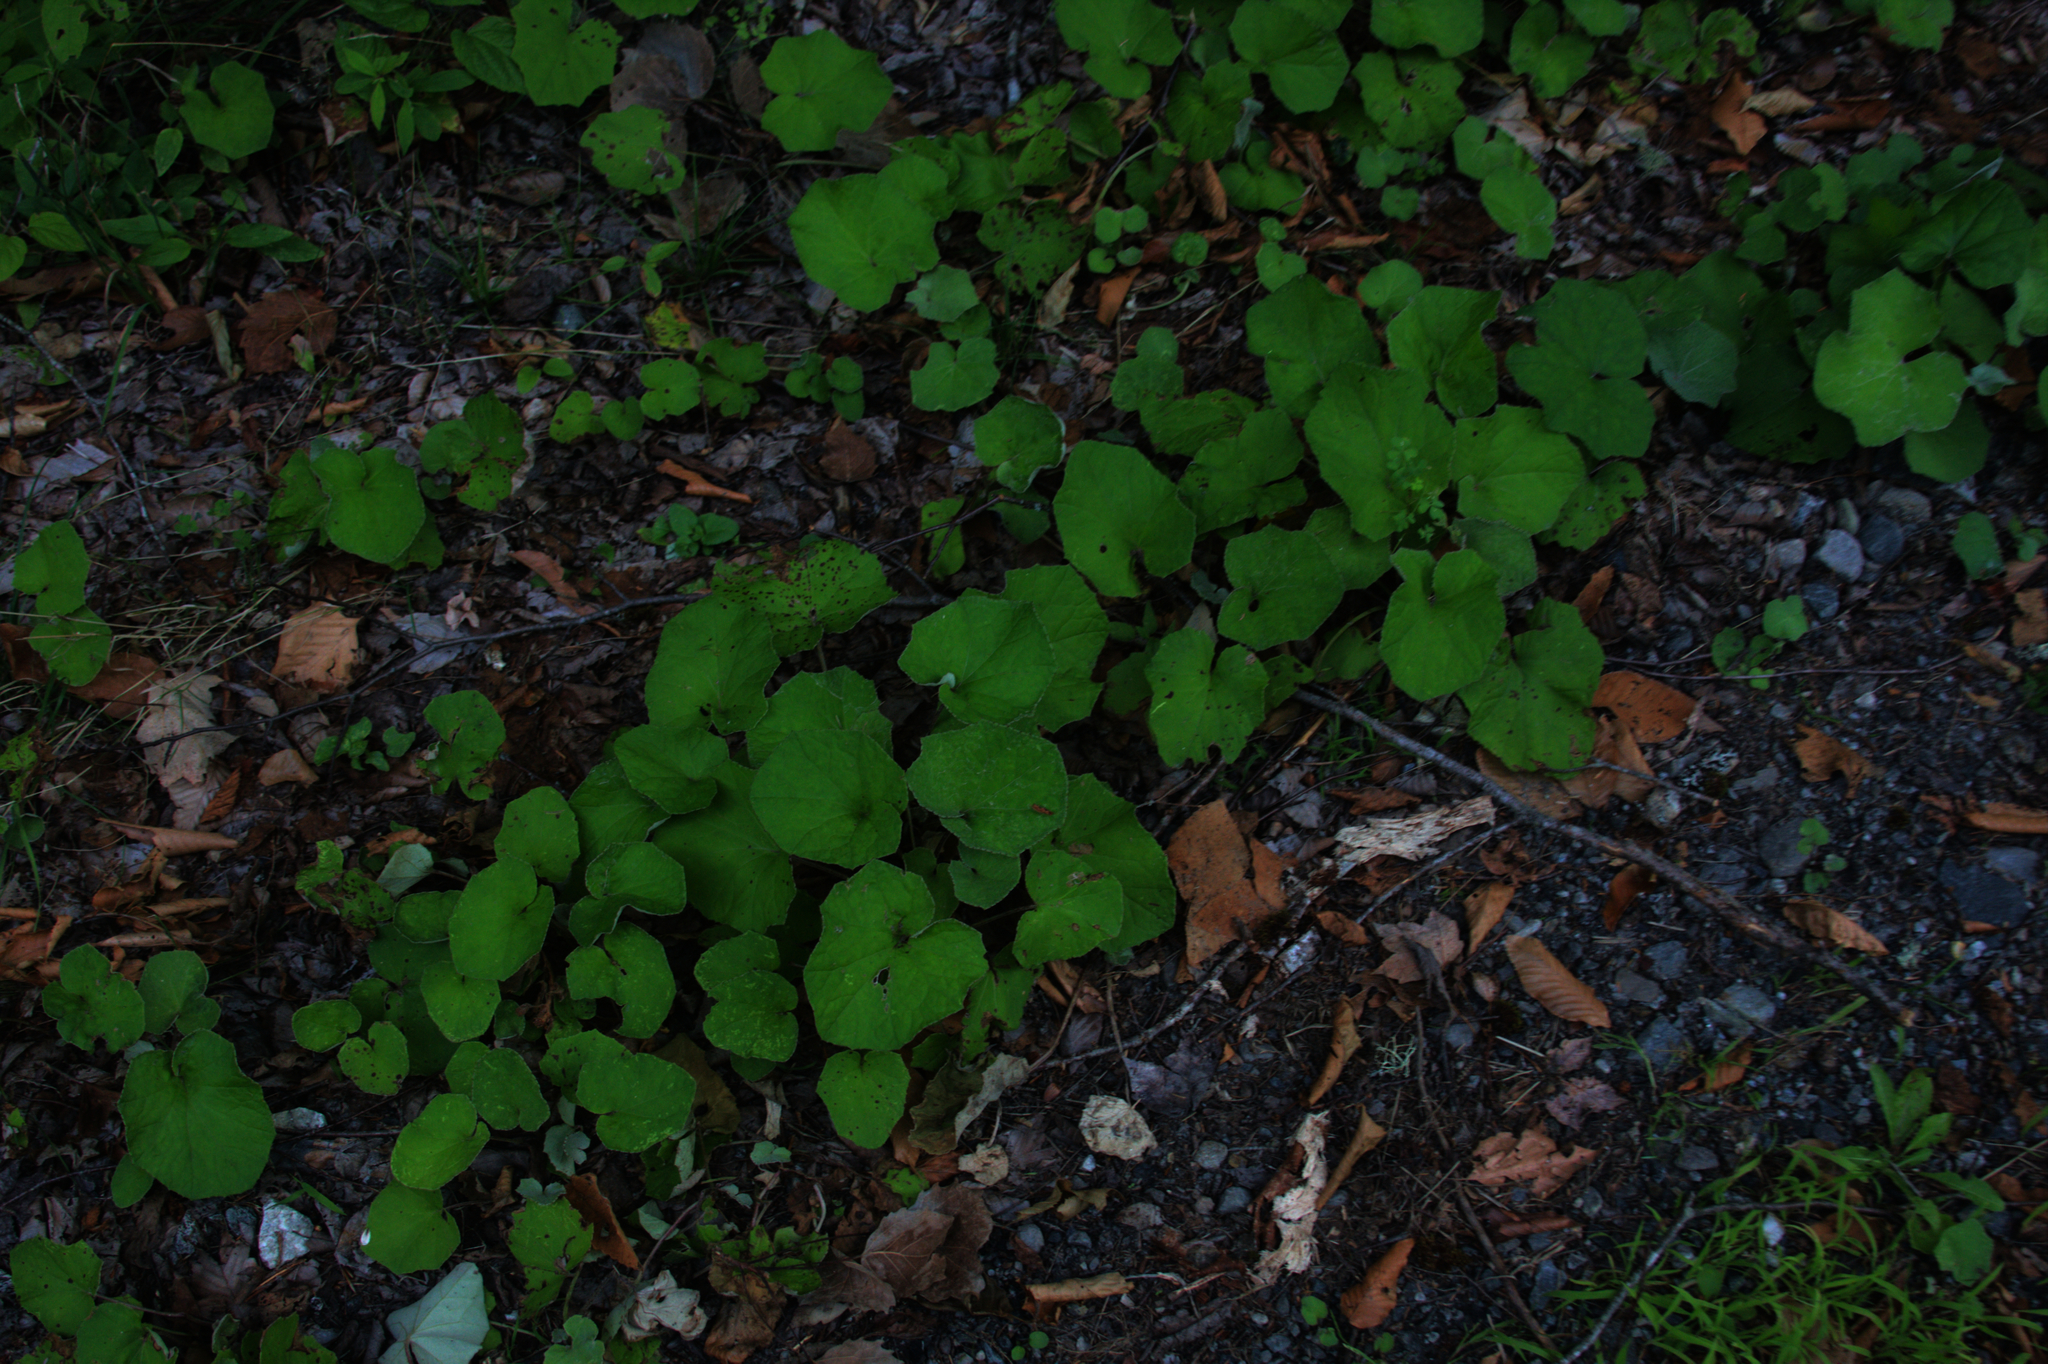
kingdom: Plantae
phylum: Tracheophyta
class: Magnoliopsida
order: Asterales
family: Asteraceae
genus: Tussilago
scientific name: Tussilago farfara
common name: Coltsfoot
